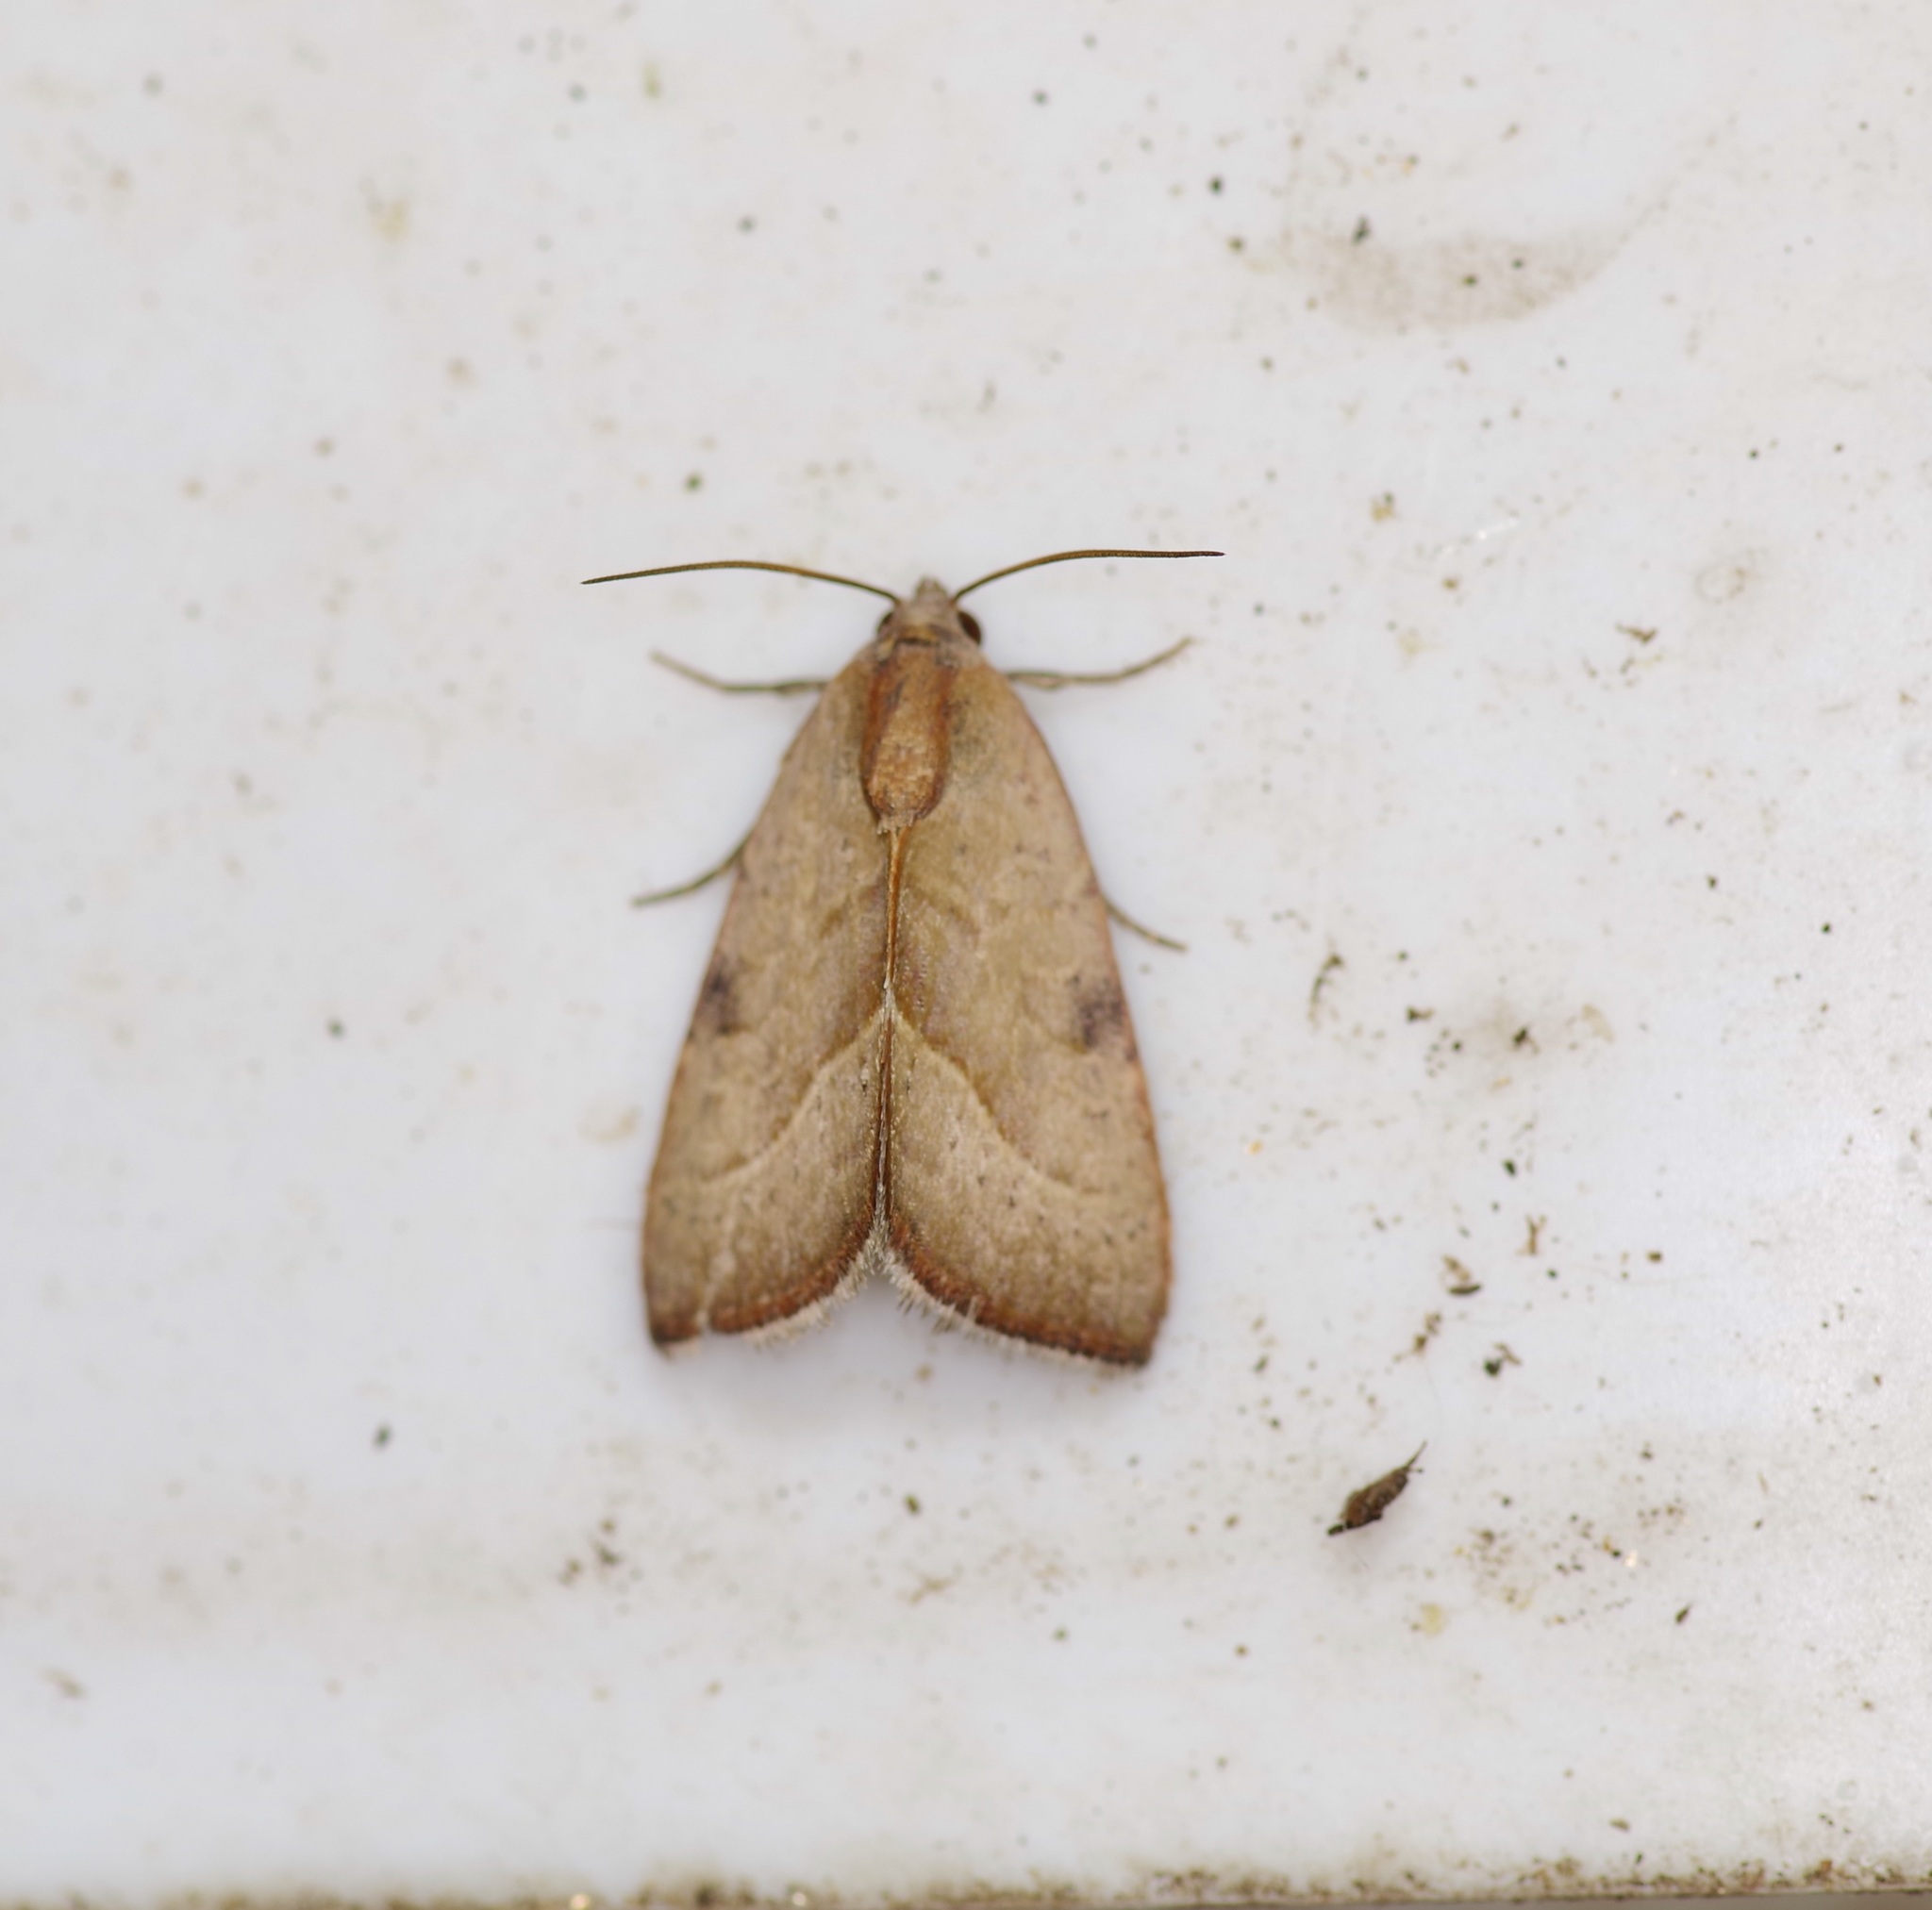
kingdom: Animalia
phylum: Arthropoda
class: Insecta
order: Lepidoptera
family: Noctuidae
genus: Galgula
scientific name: Galgula partita
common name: Wedgeling
